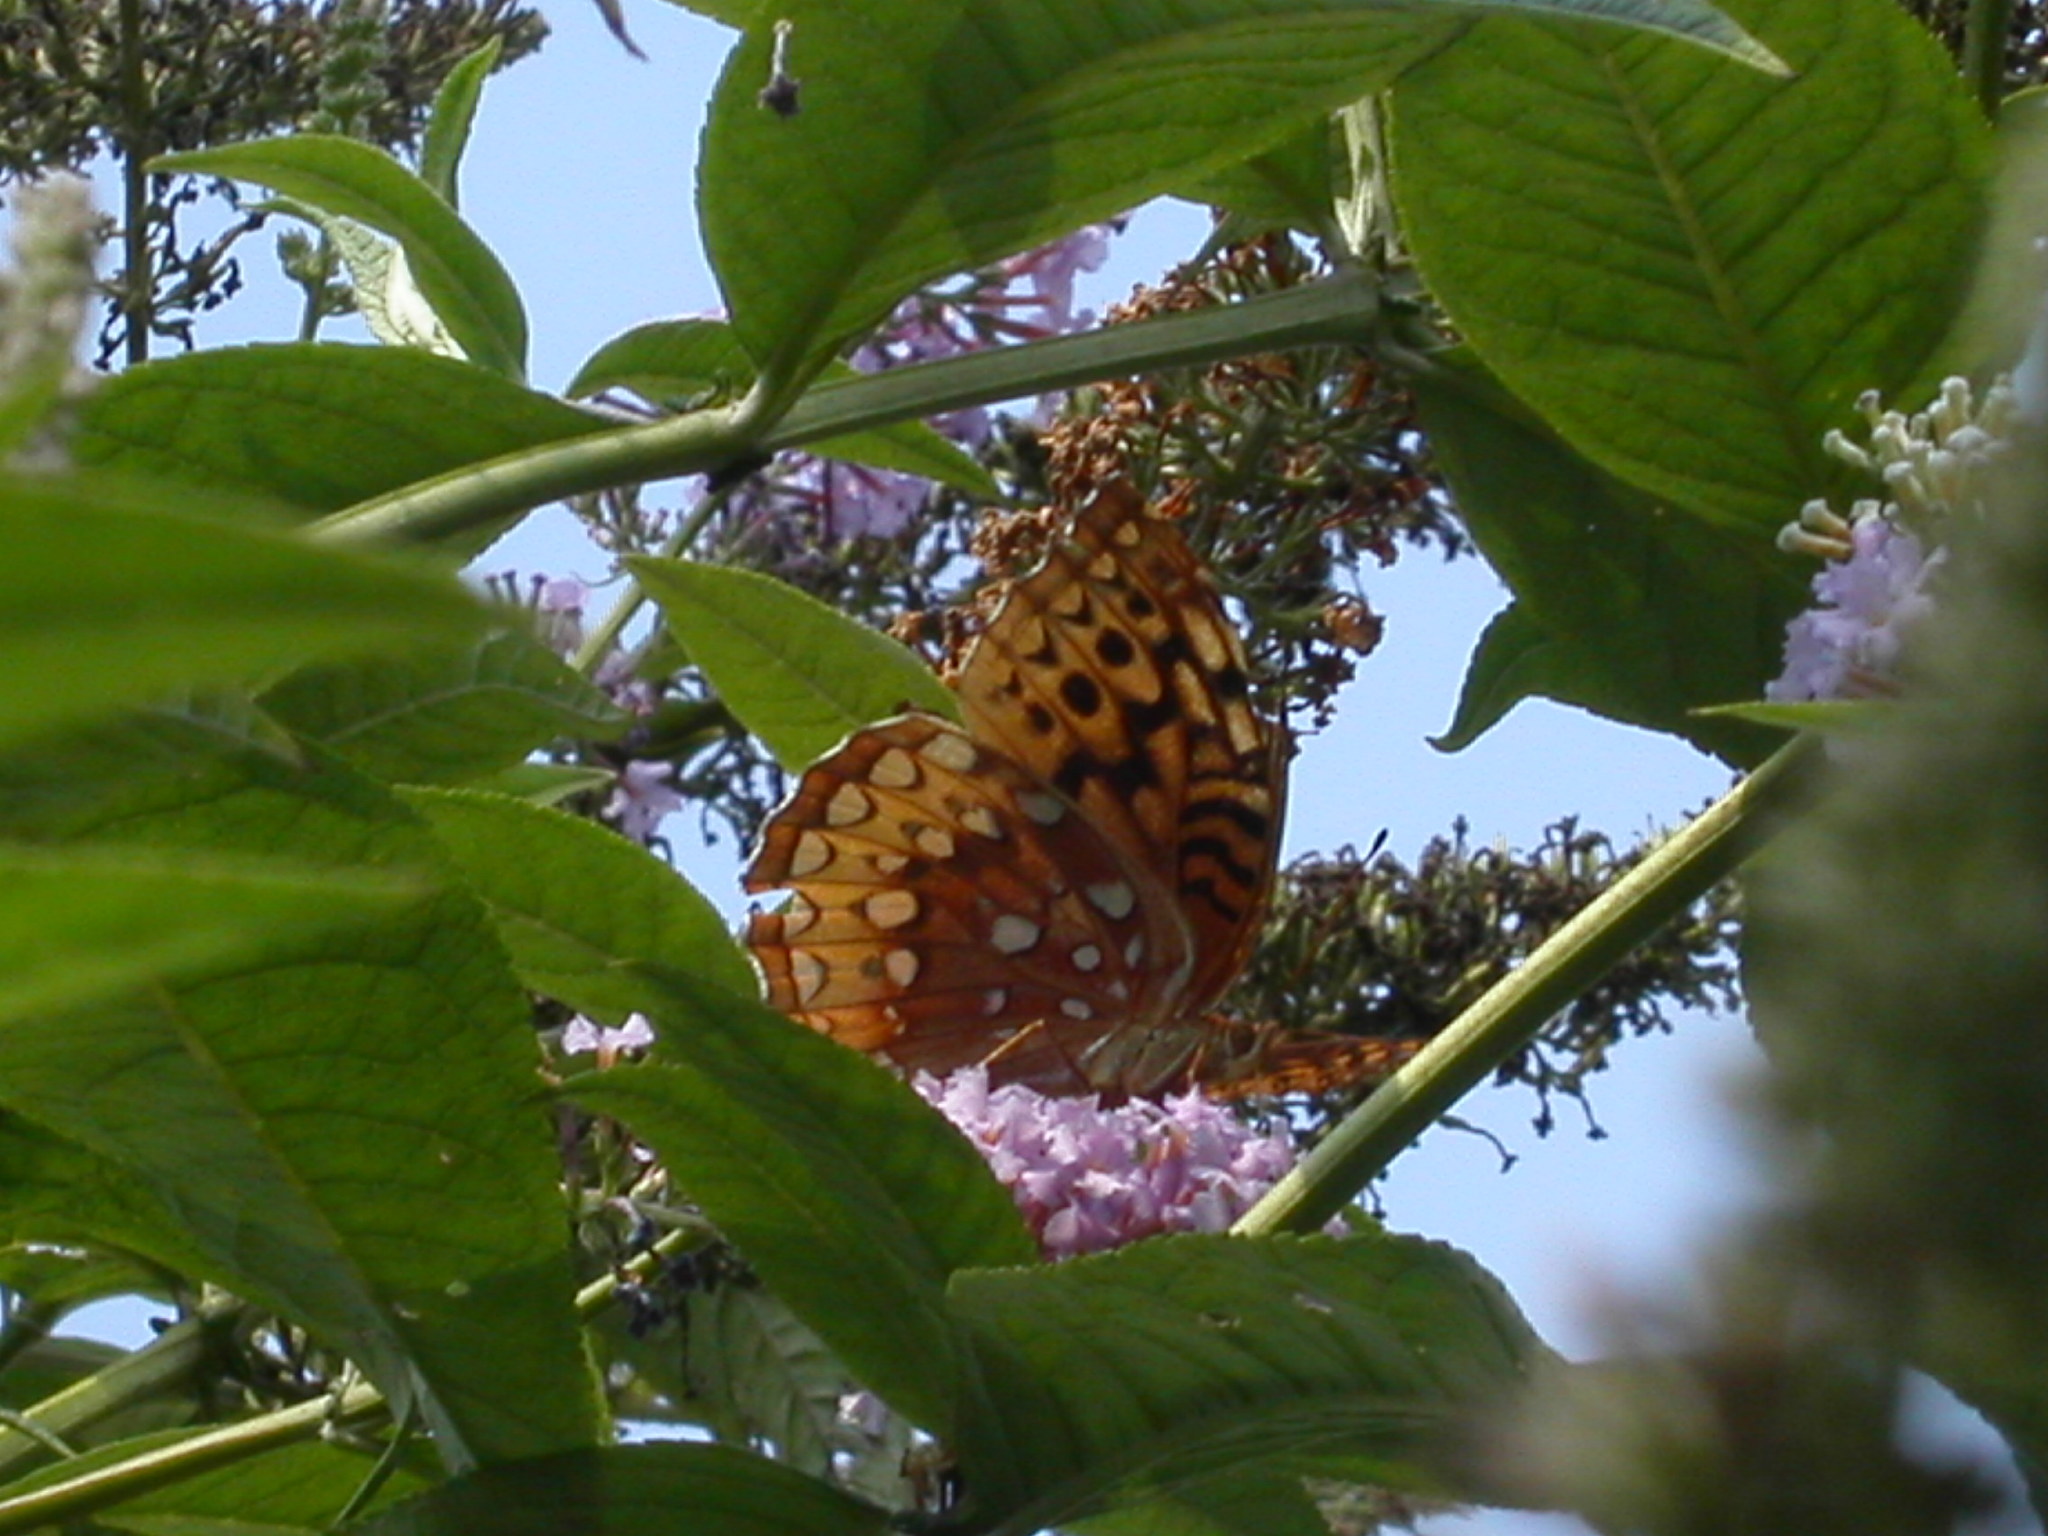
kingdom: Animalia
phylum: Arthropoda
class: Insecta
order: Lepidoptera
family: Nymphalidae
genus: Speyeria
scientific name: Speyeria cybele
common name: Great spangled fritillary
